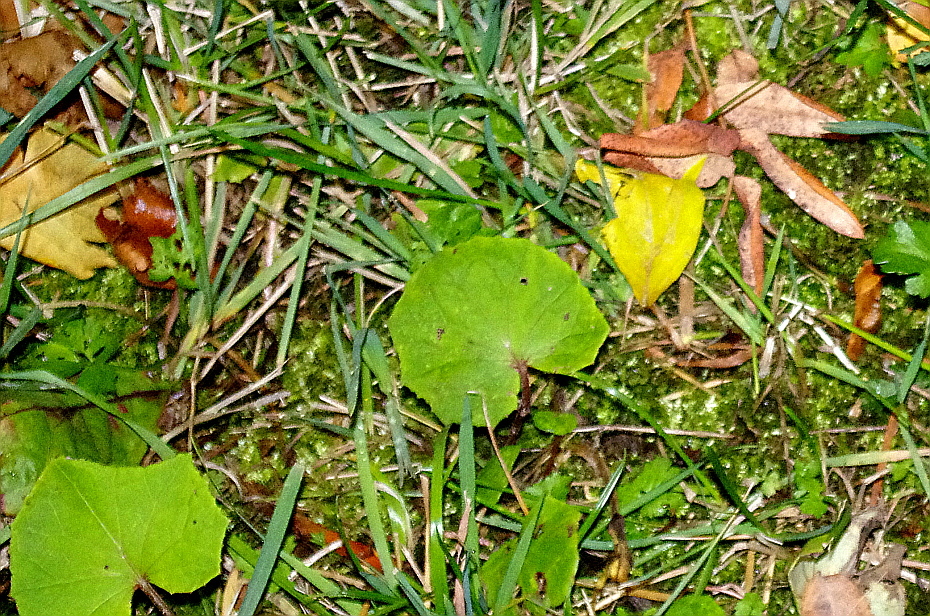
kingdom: Plantae
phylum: Tracheophyta
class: Magnoliopsida
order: Asterales
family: Asteraceae
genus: Tussilago
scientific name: Tussilago farfara
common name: Coltsfoot
